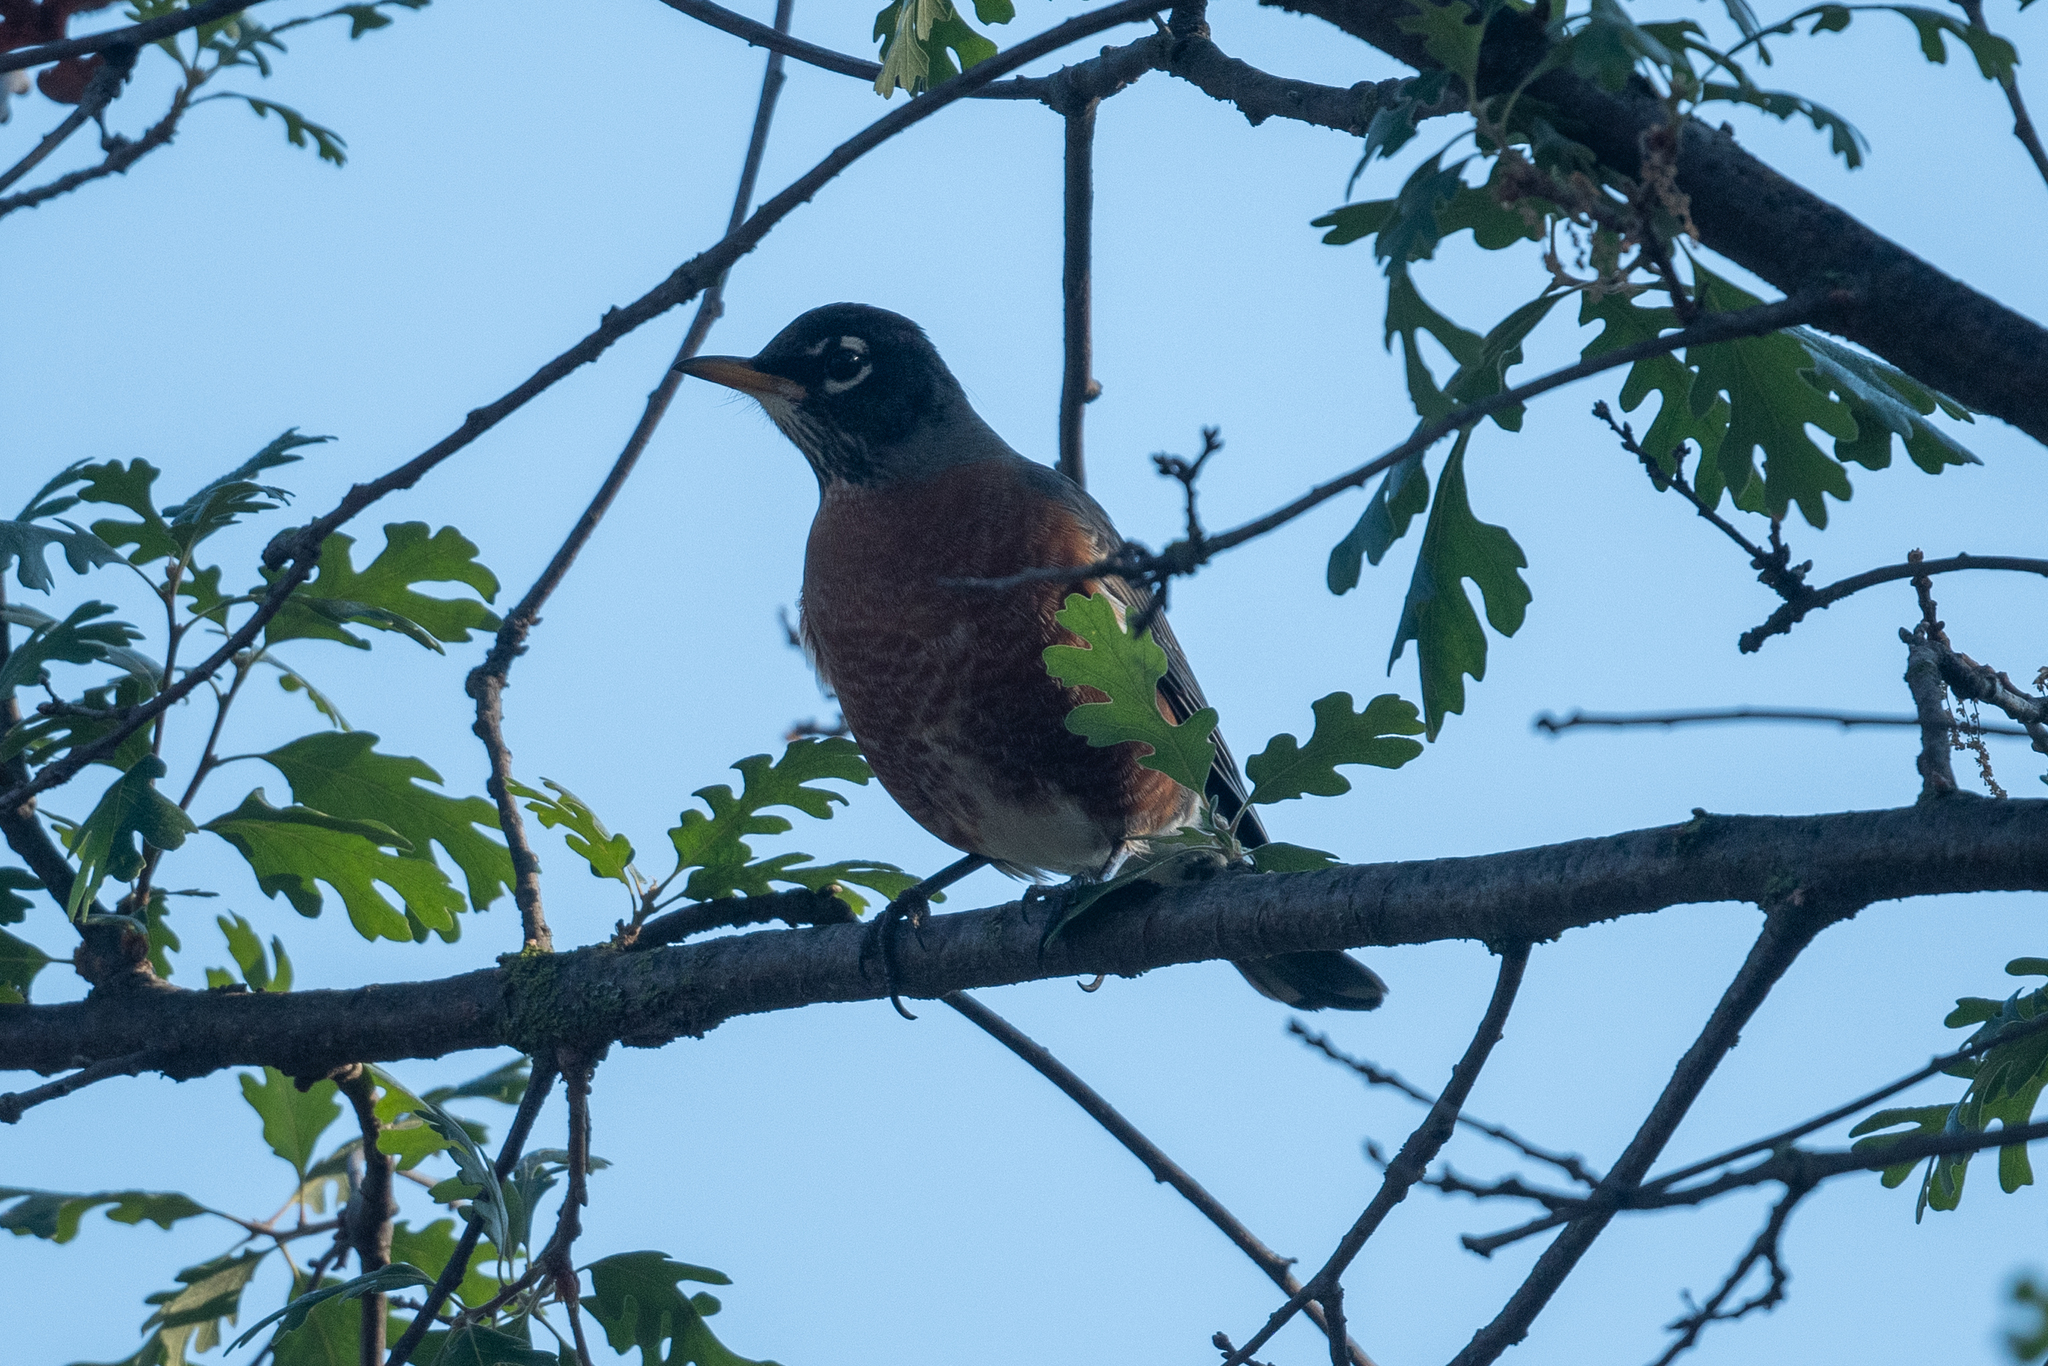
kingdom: Animalia
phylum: Chordata
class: Aves
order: Passeriformes
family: Turdidae
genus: Turdus
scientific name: Turdus migratorius
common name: American robin
